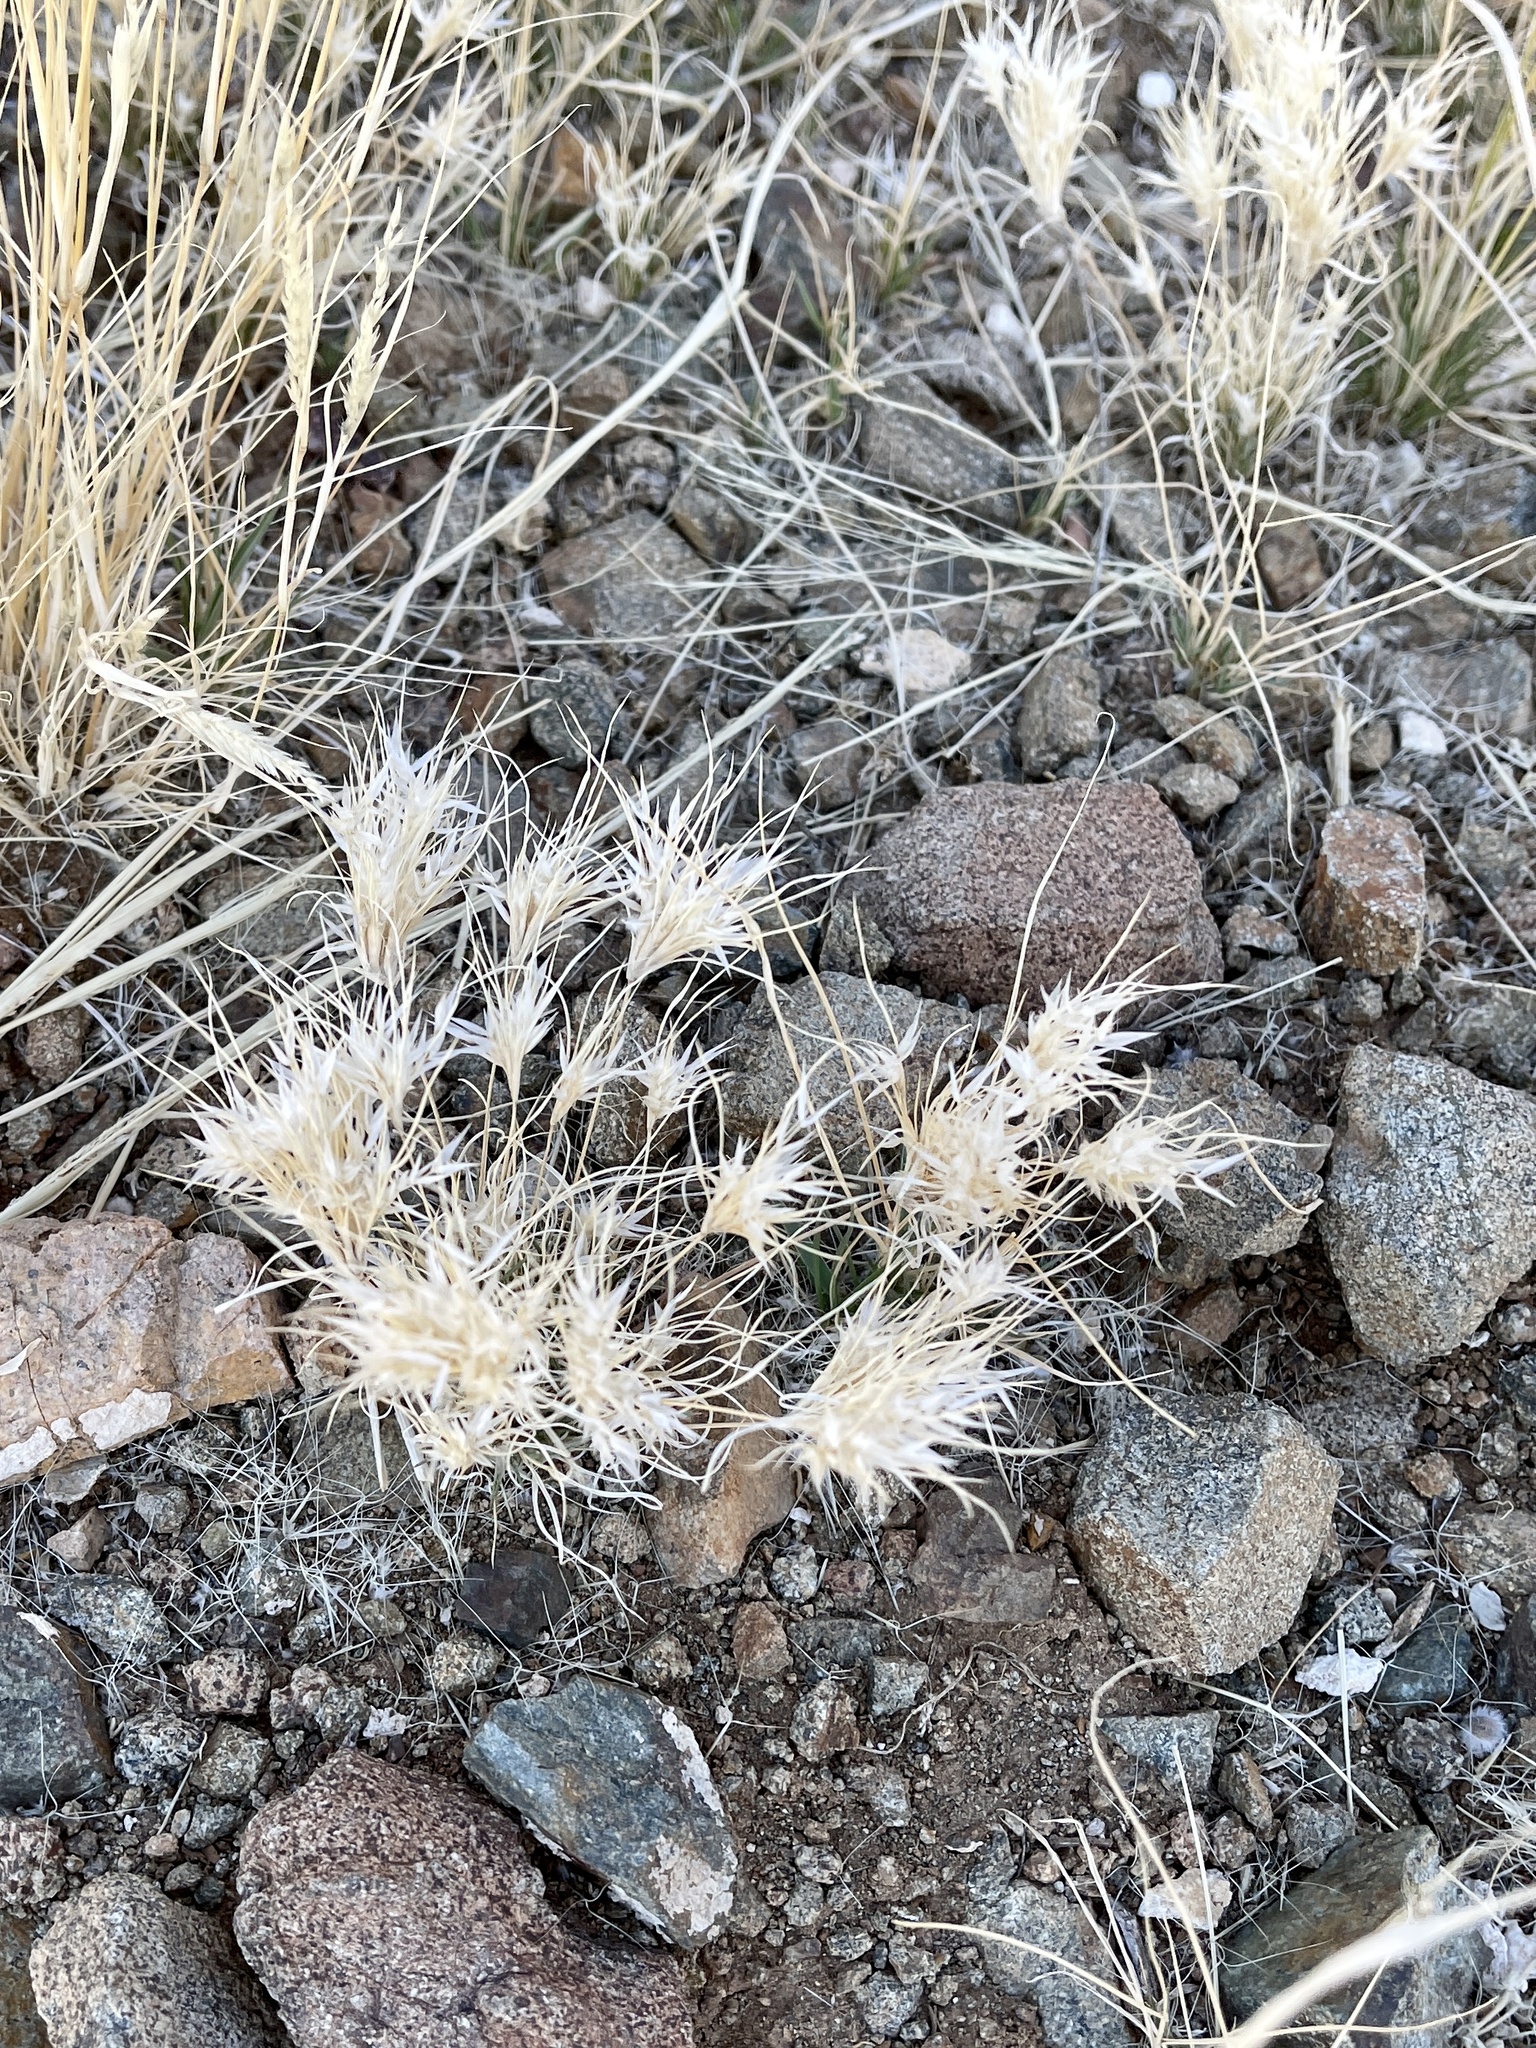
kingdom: Plantae
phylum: Tracheophyta
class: Liliopsida
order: Poales
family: Poaceae
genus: Dasyochloa
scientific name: Dasyochloa pulchella
